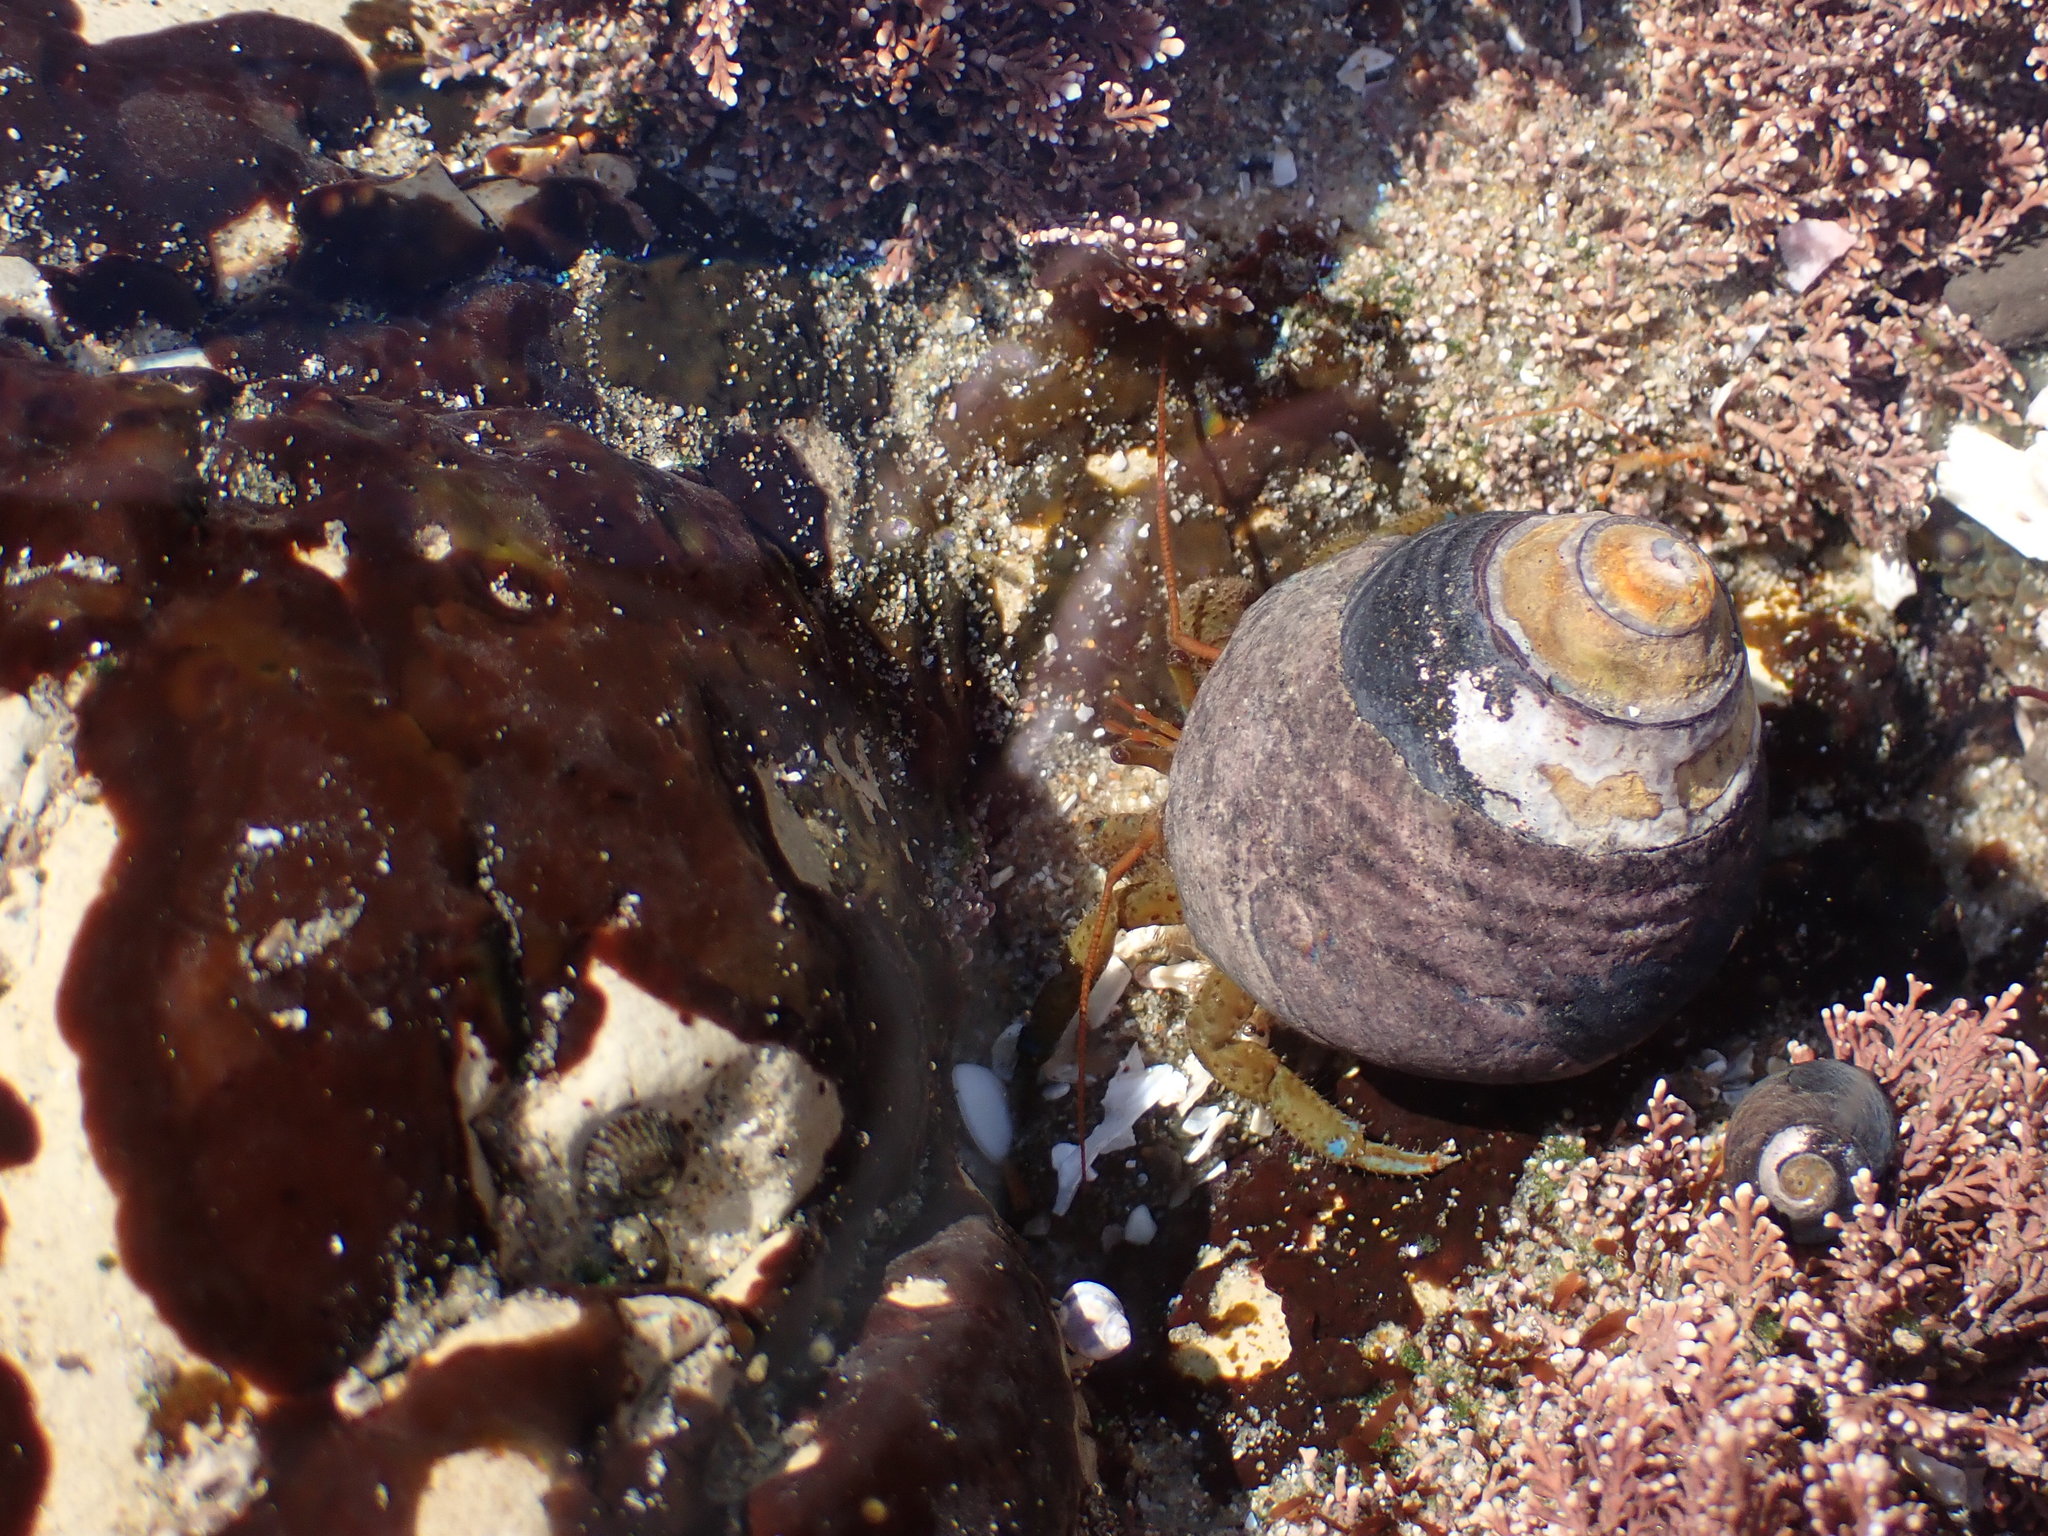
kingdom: Animalia
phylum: Arthropoda
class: Malacostraca
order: Decapoda
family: Paguridae
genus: Pagurus
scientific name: Pagurus samuelis
